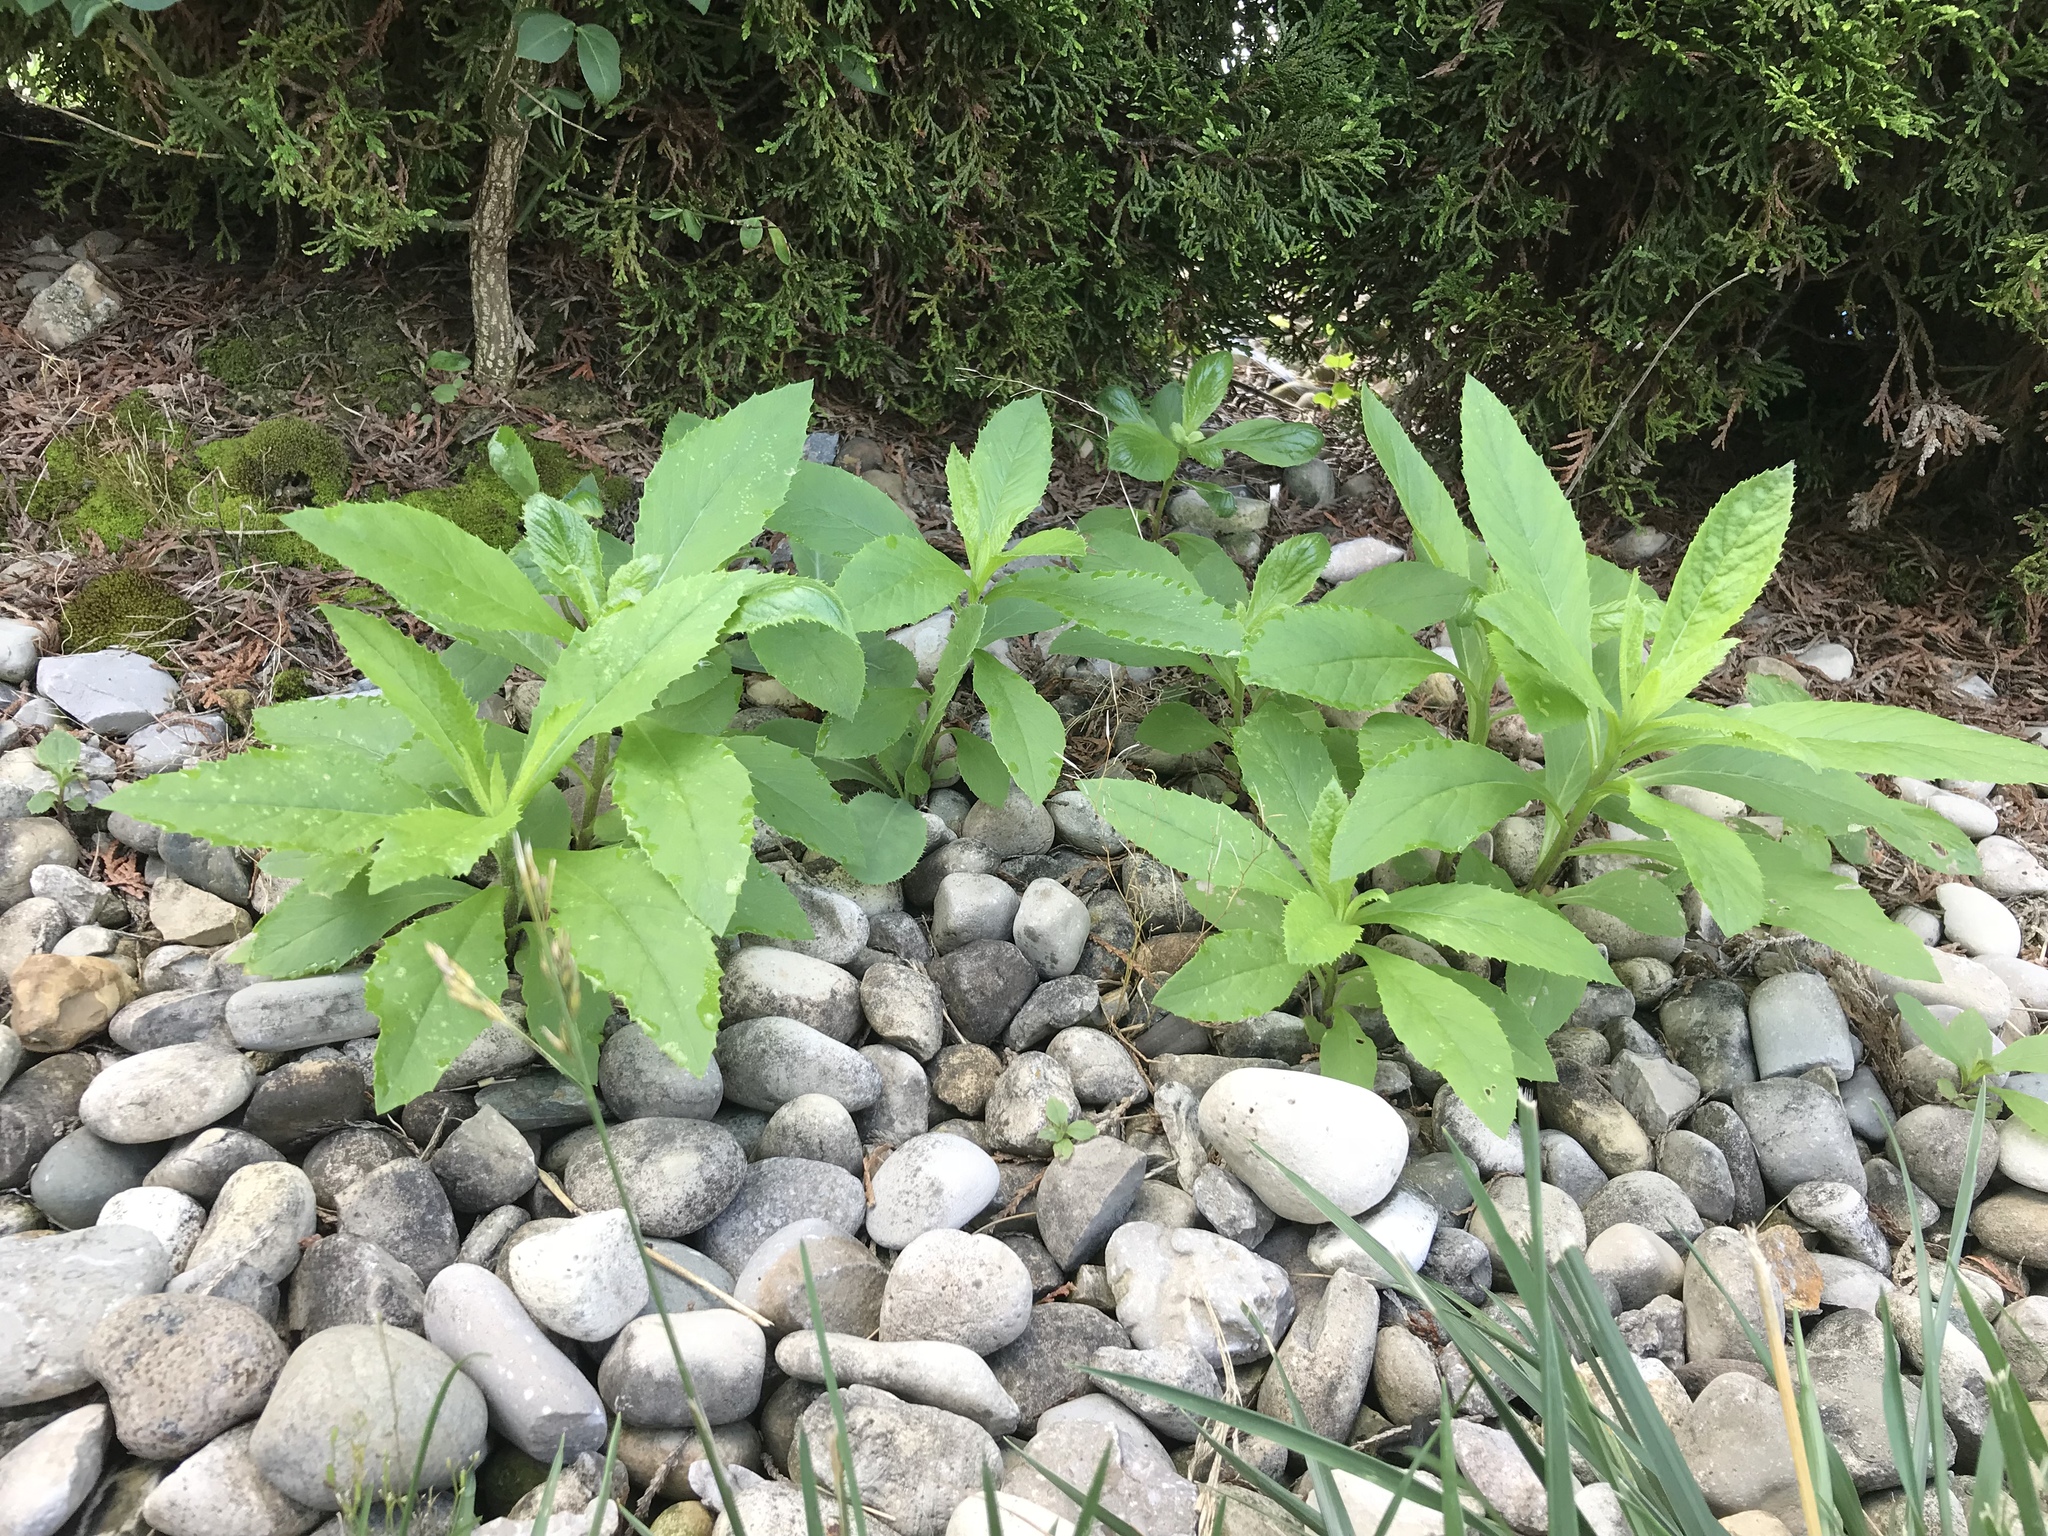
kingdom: Plantae
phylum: Tracheophyta
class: Magnoliopsida
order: Caryophyllales
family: Phytolaccaceae
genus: Phytolacca
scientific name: Phytolacca americana
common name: American pokeweed
